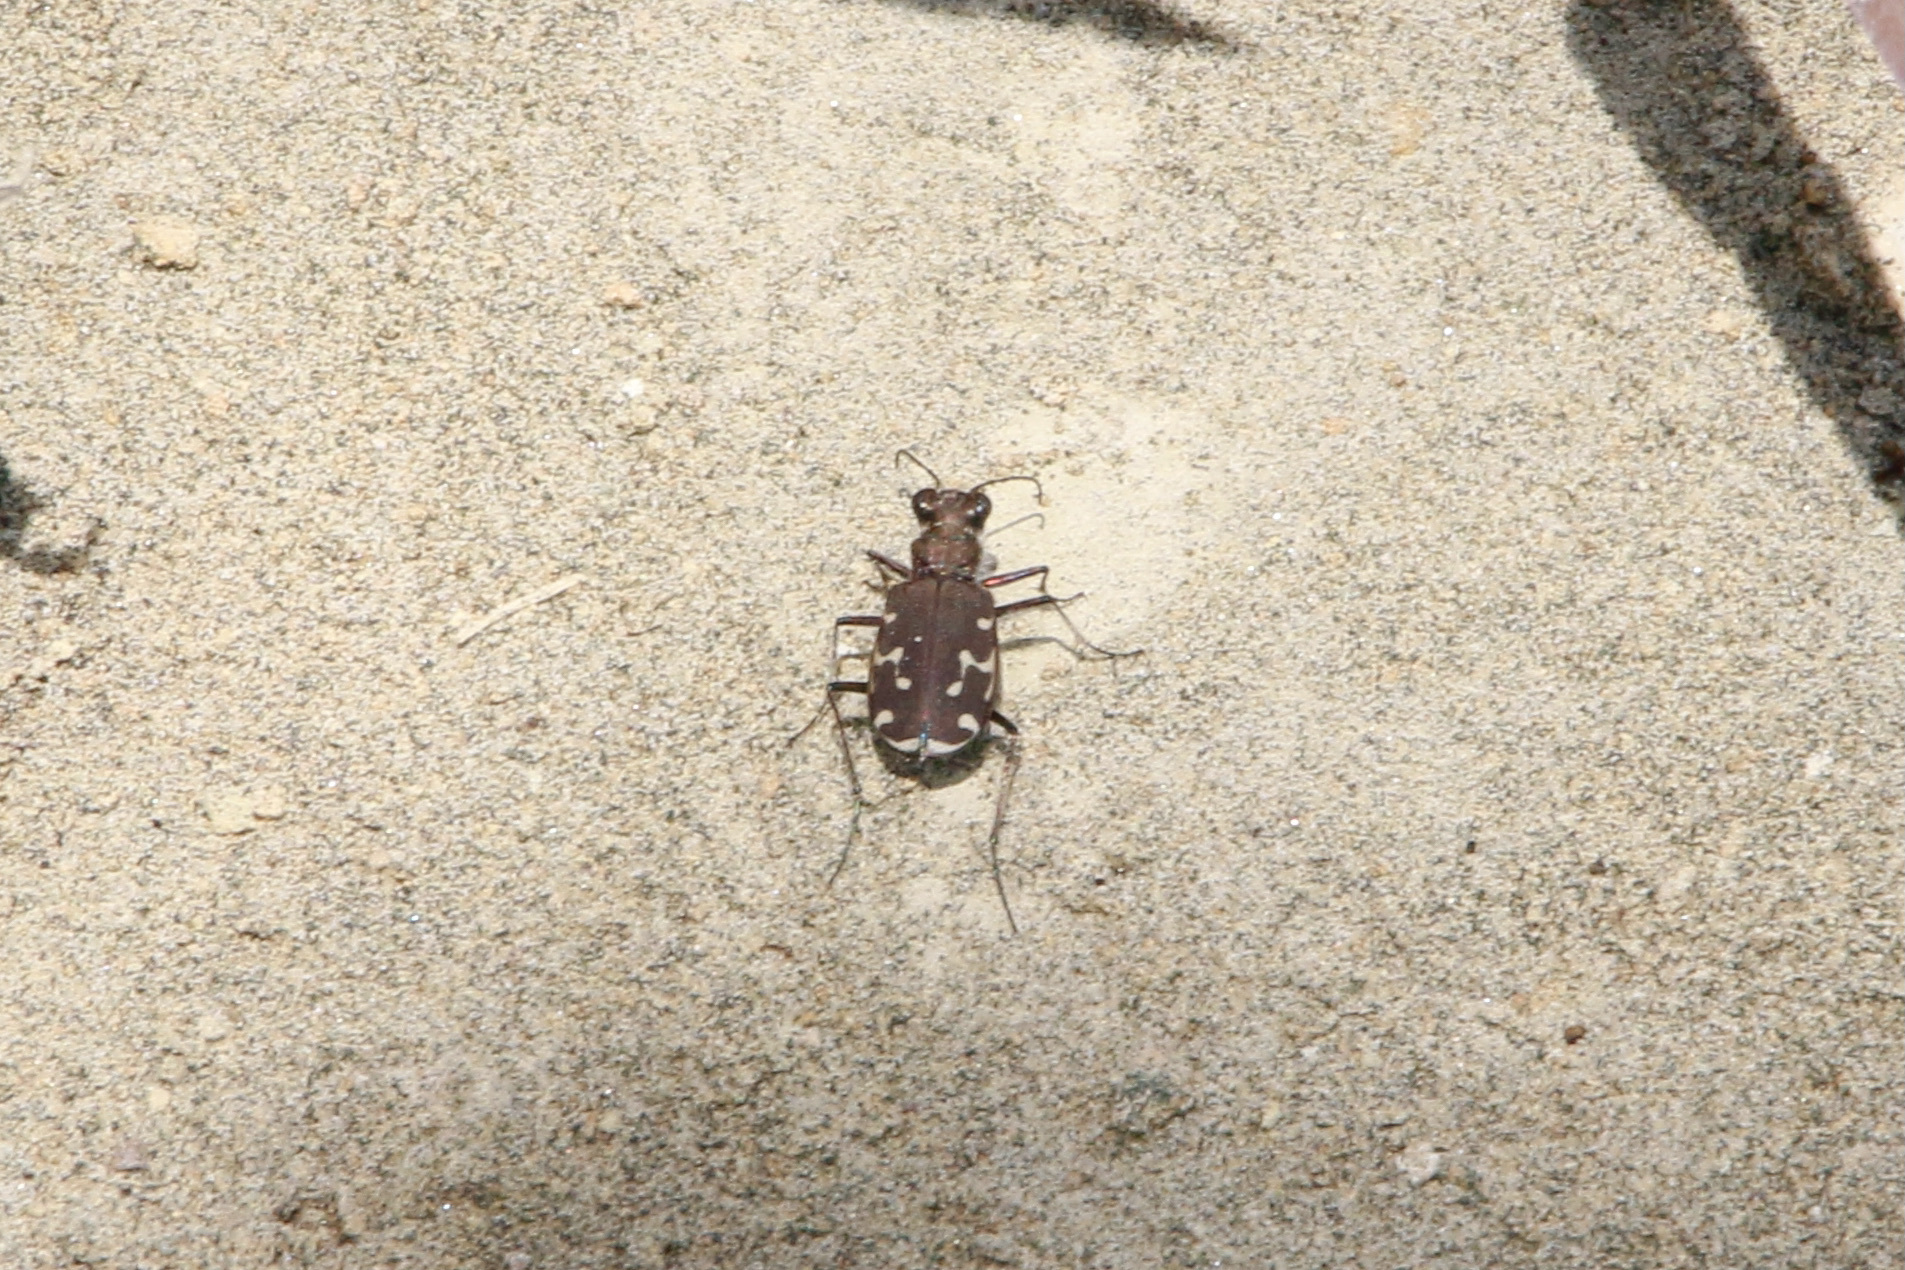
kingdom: Animalia
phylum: Arthropoda
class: Insecta
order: Coleoptera
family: Carabidae
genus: Cicindela
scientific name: Cicindela duodecimguttata
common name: Twelve-spotted tiger beetle
